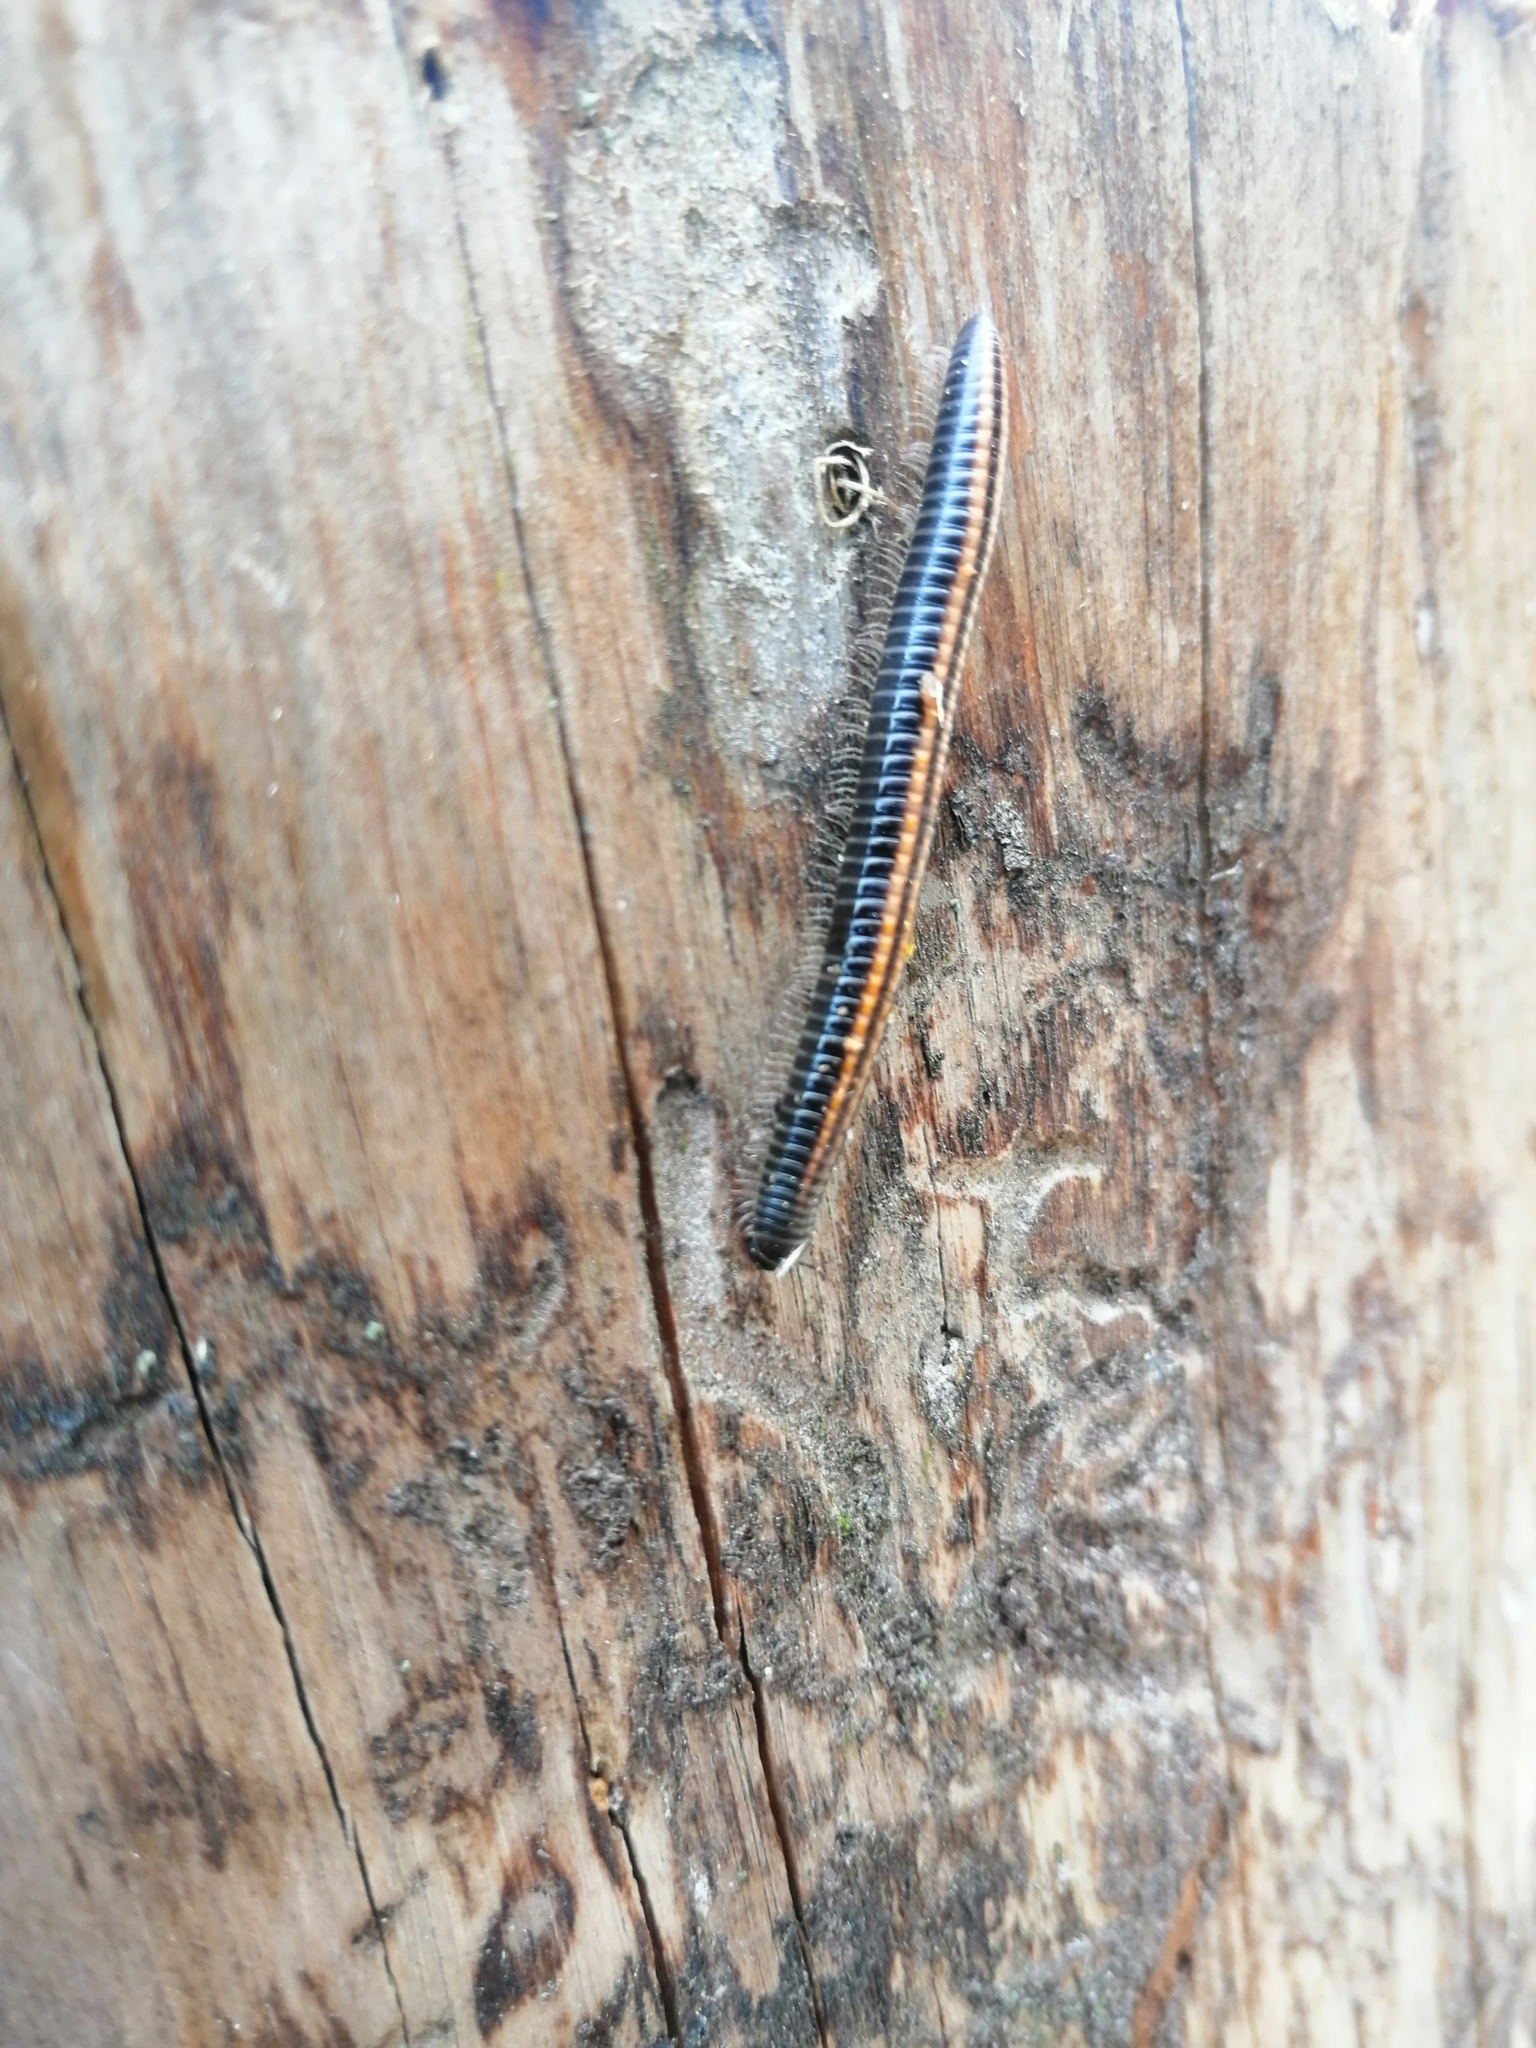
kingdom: Animalia
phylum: Arthropoda
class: Diplopoda
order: Julida
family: Julidae
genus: Ommatoiulus
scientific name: Ommatoiulus sabulosus
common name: Striped millipede
